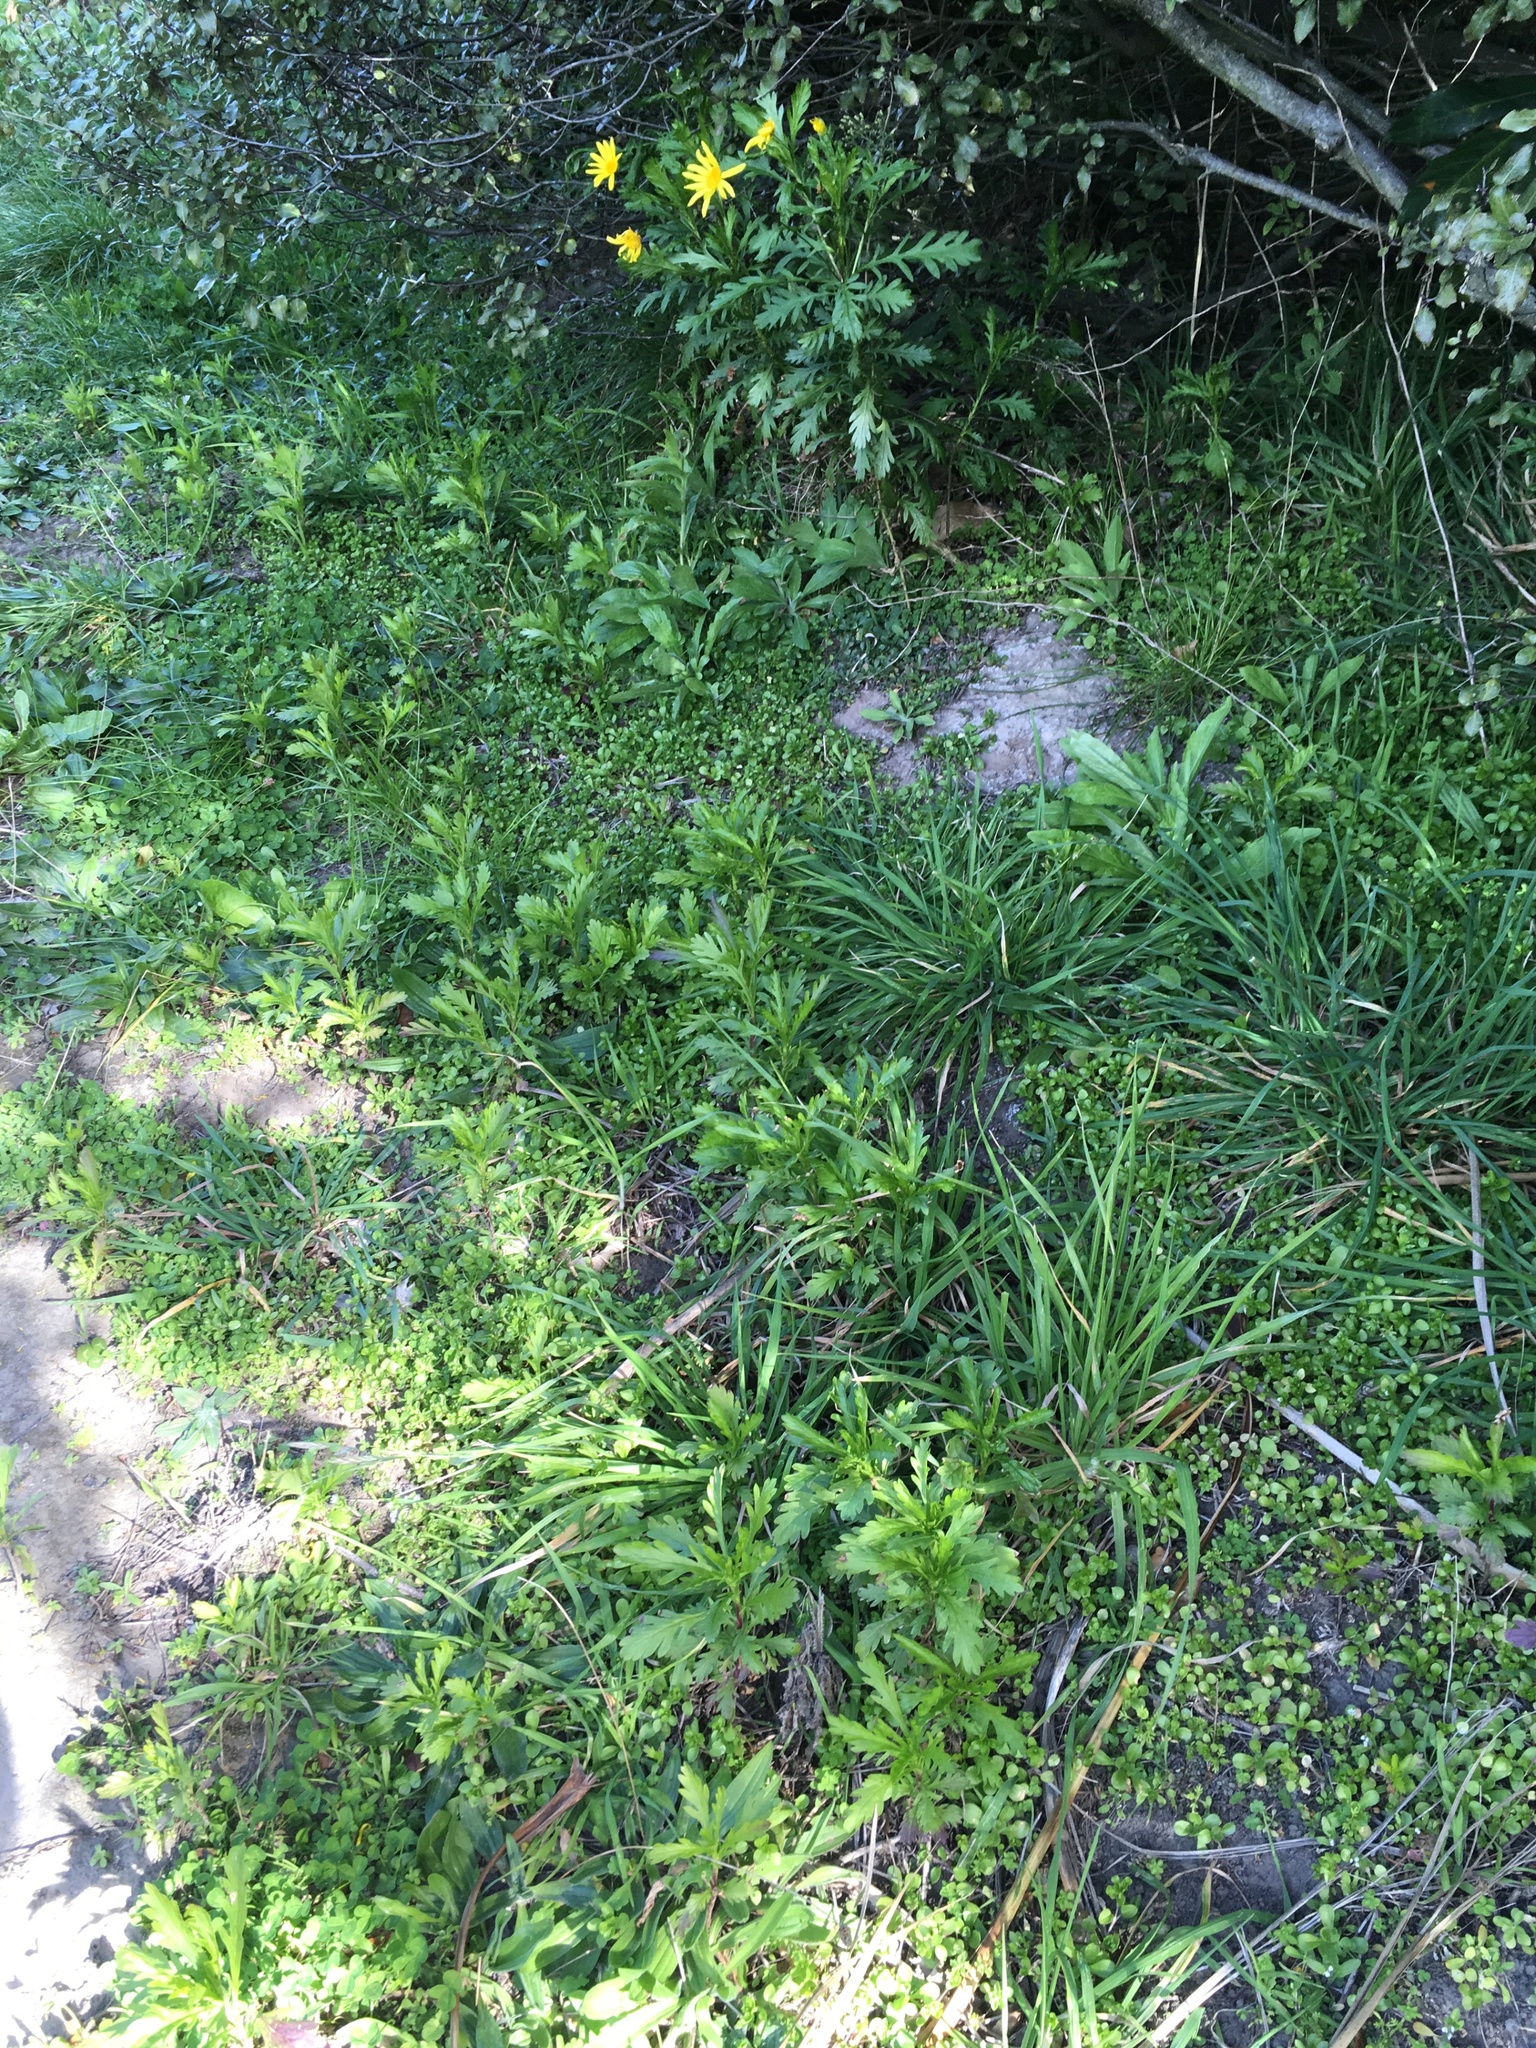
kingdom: Plantae
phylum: Tracheophyta
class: Magnoliopsida
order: Asterales
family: Asteraceae
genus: Euryops
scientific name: Euryops chrysanthemoides
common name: Bull's eye
